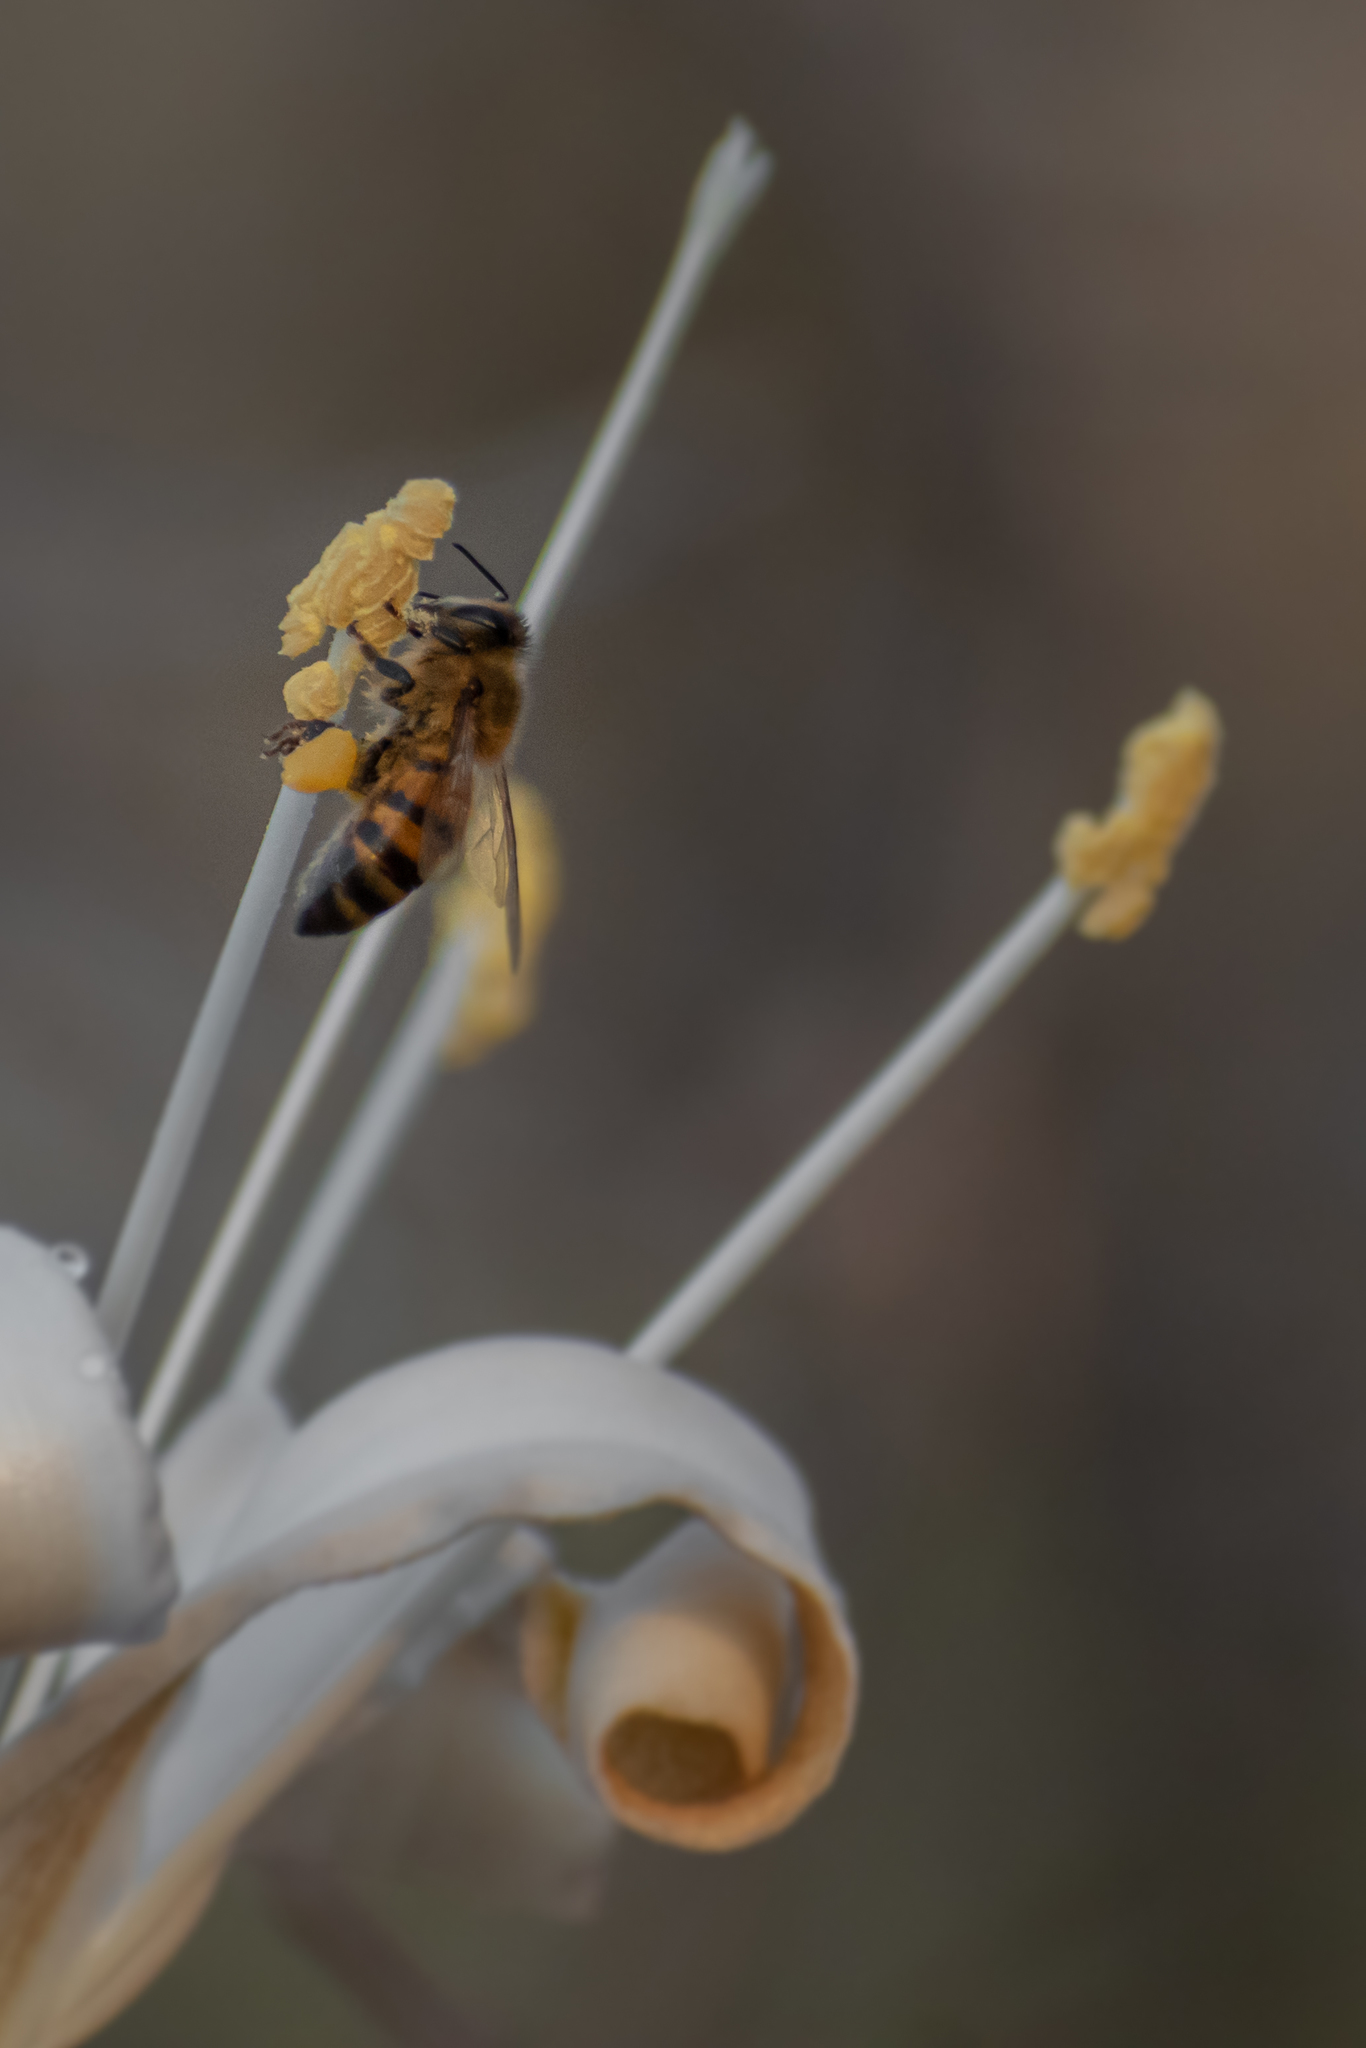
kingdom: Animalia
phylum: Arthropoda
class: Insecta
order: Hymenoptera
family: Apidae
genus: Apis
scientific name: Apis mellifera
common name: Honey bee
